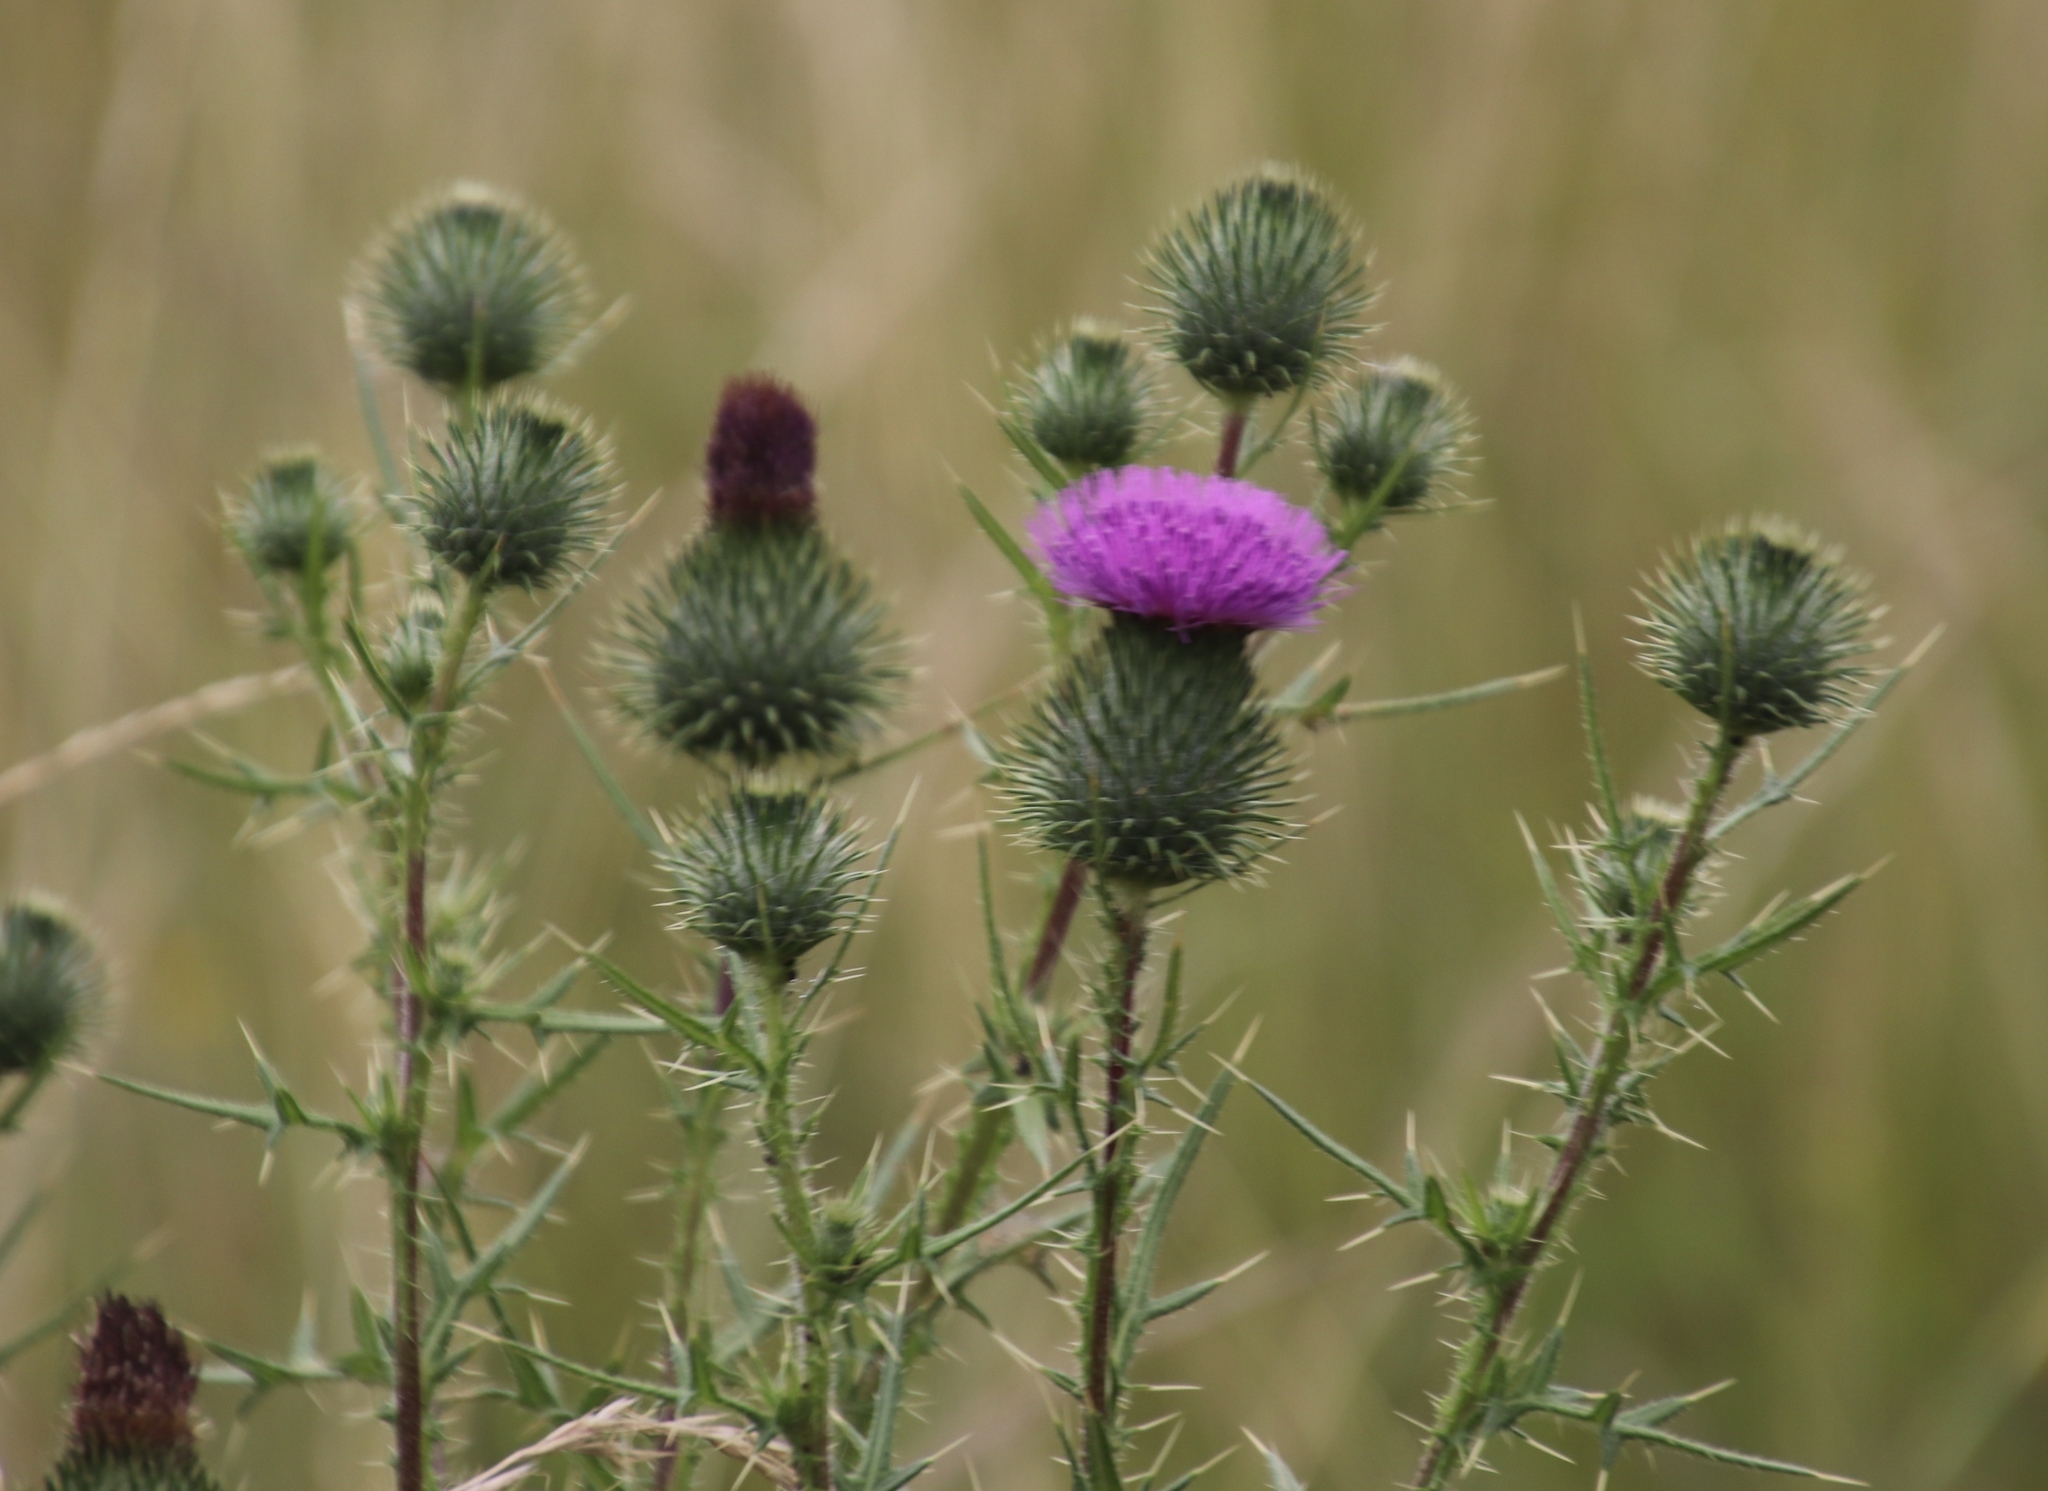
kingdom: Plantae
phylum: Tracheophyta
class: Magnoliopsida
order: Asterales
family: Asteraceae
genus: Cirsium
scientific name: Cirsium vulgare
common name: Bull thistle
